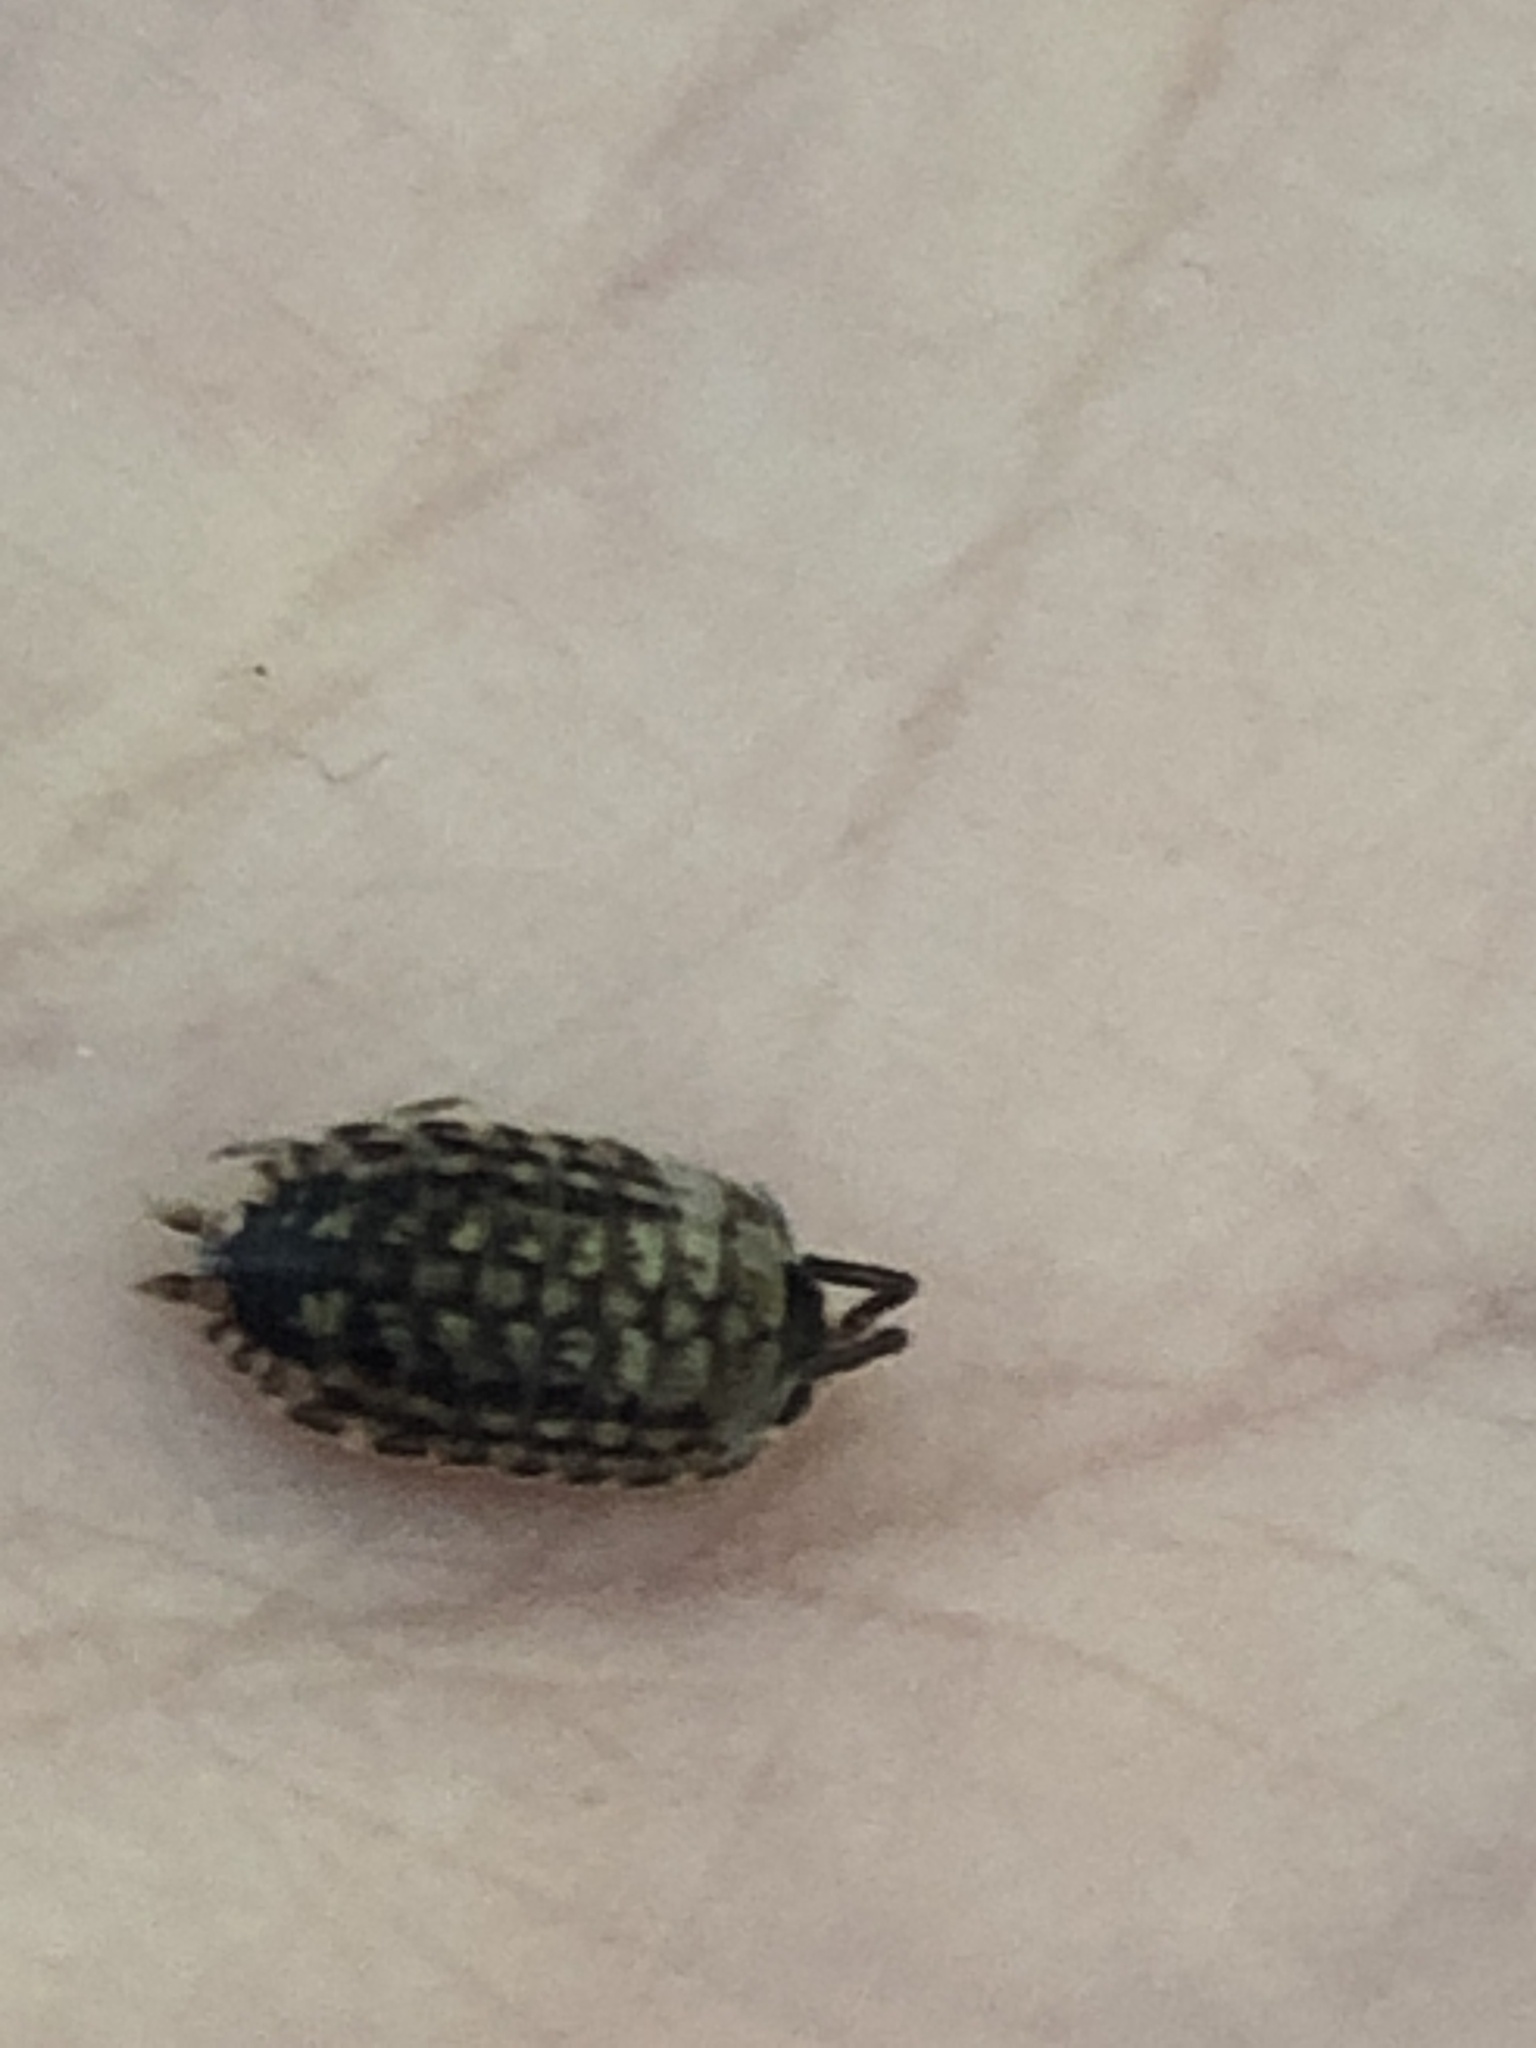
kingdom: Animalia
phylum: Arthropoda
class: Malacostraca
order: Isopoda
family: Porcellionidae
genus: Porcellio
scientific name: Porcellio spinicornis
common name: Painted woodlouse
